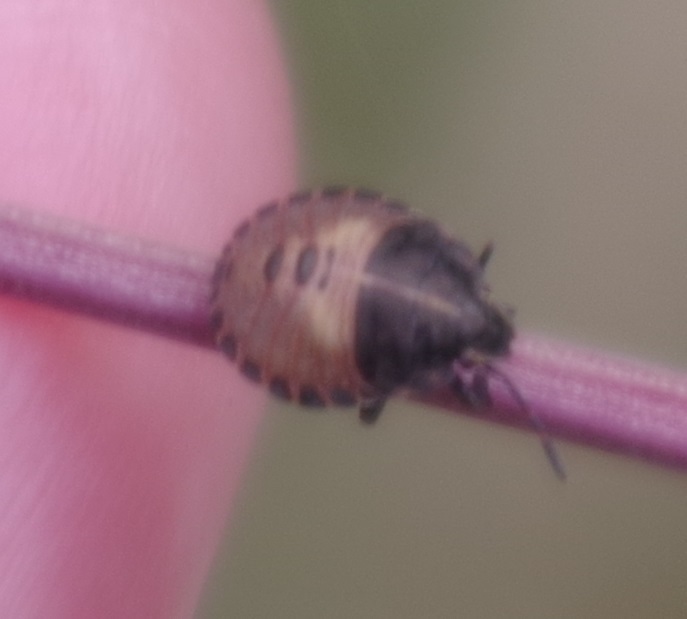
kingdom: Animalia
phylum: Arthropoda
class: Insecta
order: Hemiptera
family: Pentatomidae
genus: Graphosoma
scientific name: Graphosoma italicum
